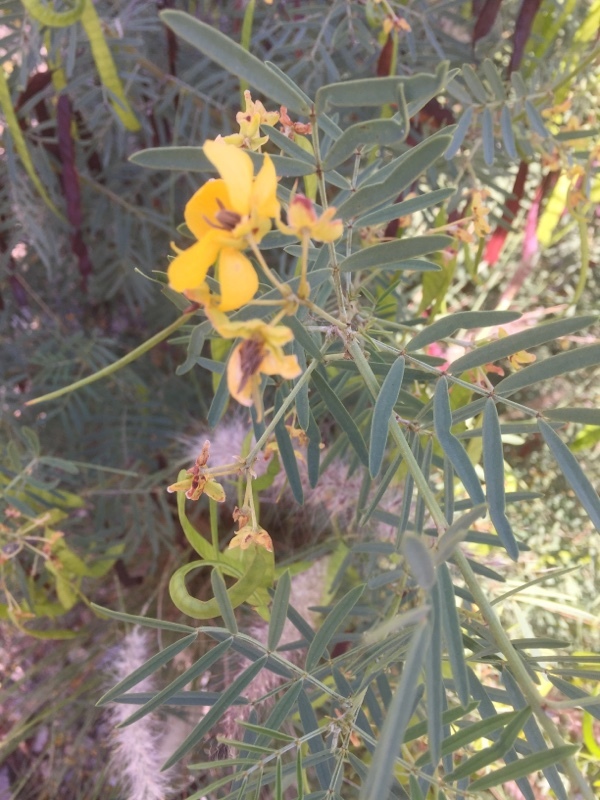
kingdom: Plantae
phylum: Tracheophyta
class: Magnoliopsida
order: Fabales
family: Fabaceae
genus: Senna
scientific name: Senna artemisioides
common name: Burnt-leaved acacia
